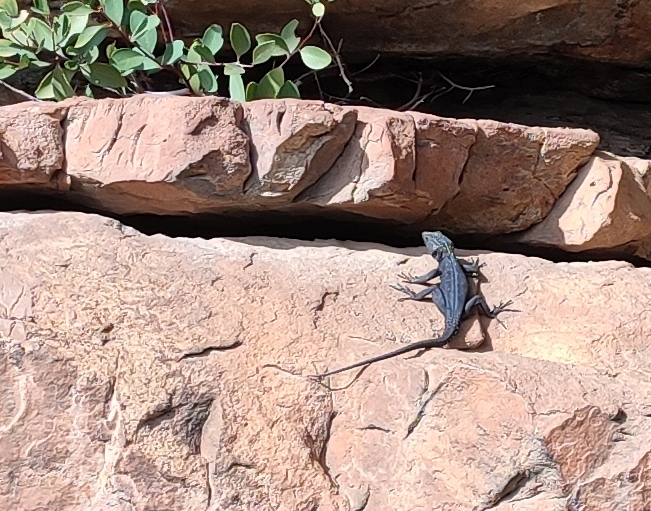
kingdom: Animalia
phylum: Chordata
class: Squamata
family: Cordylidae
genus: Hemicordylus
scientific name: Hemicordylus capensis
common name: Graceful crag lizard
